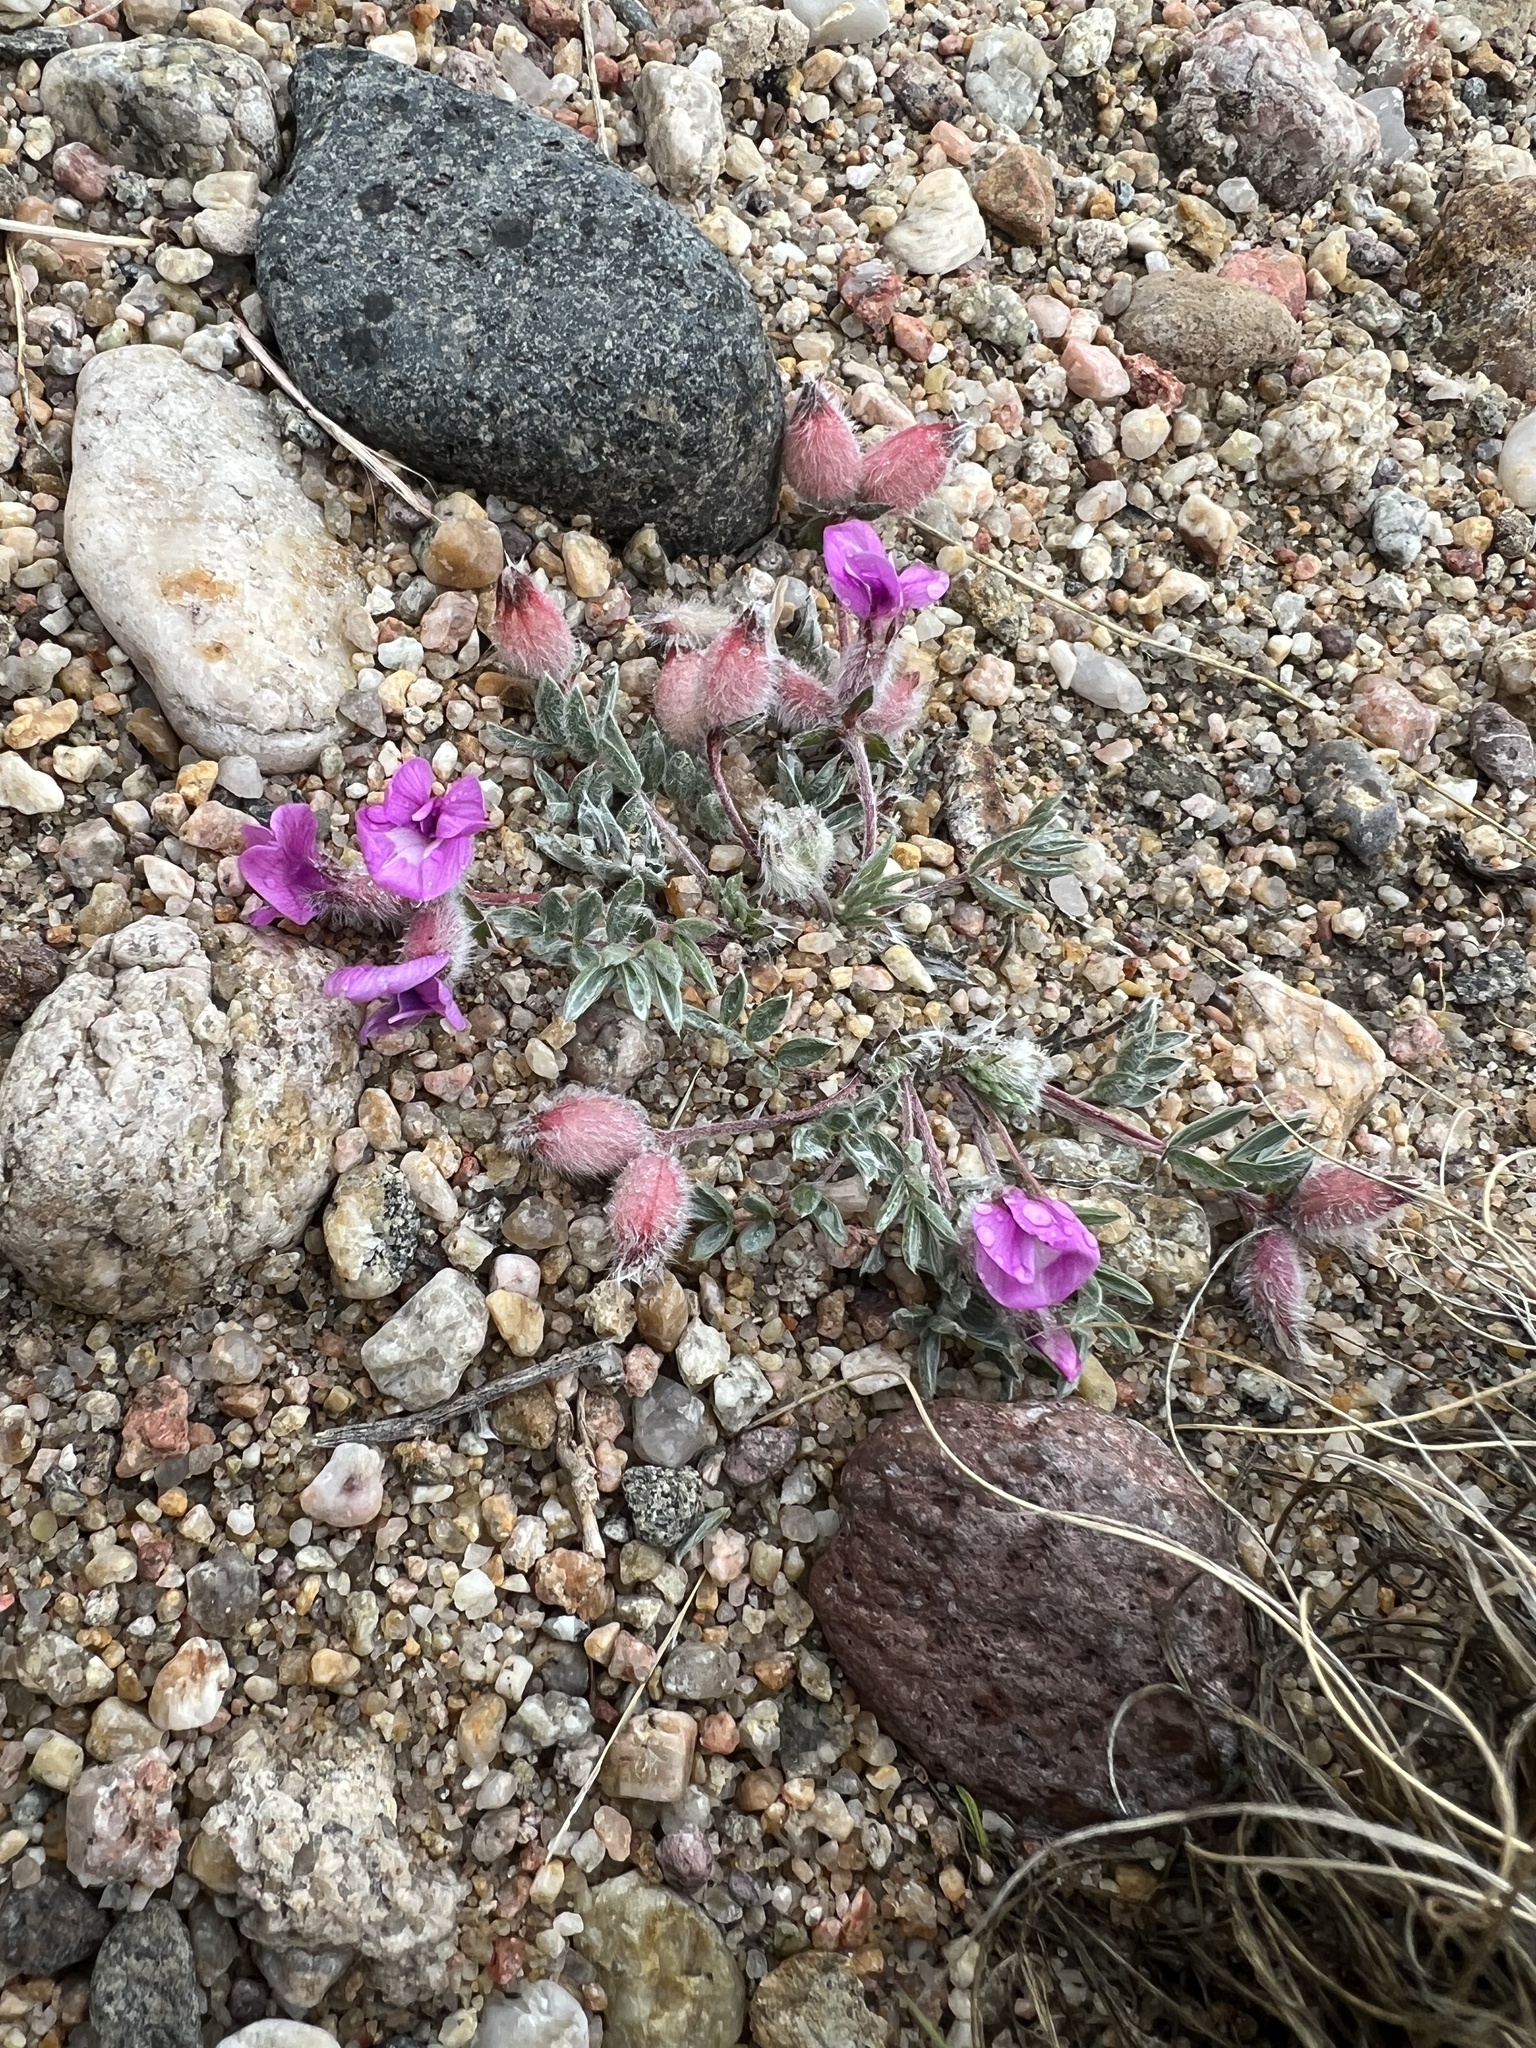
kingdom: Plantae
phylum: Tracheophyta
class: Magnoliopsida
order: Fabales
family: Fabaceae
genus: Oxytropis
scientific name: Oxytropis multiceps
